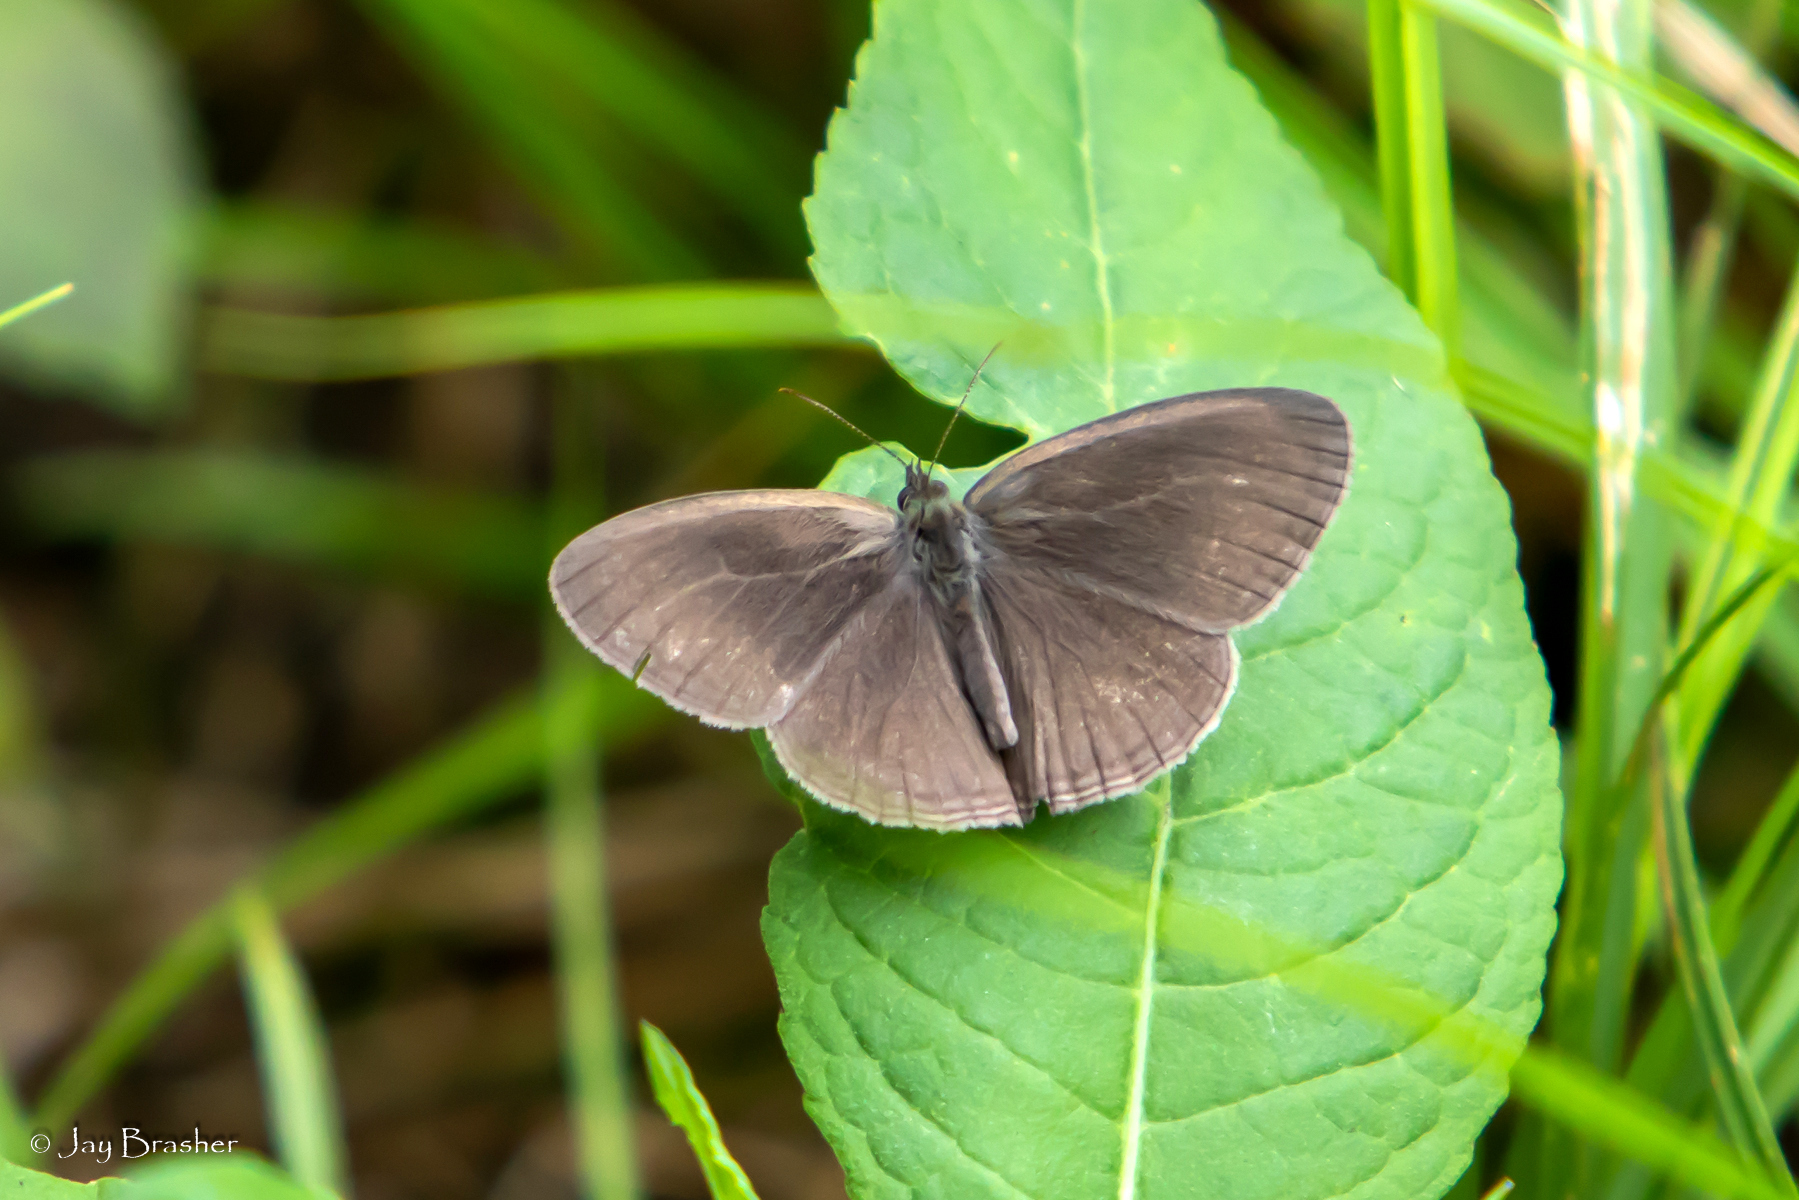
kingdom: Animalia
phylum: Arthropoda
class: Insecta
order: Lepidoptera
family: Nymphalidae
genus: Hermeuptychia
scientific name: Hermeuptychia hermes
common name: Hermes satyr
